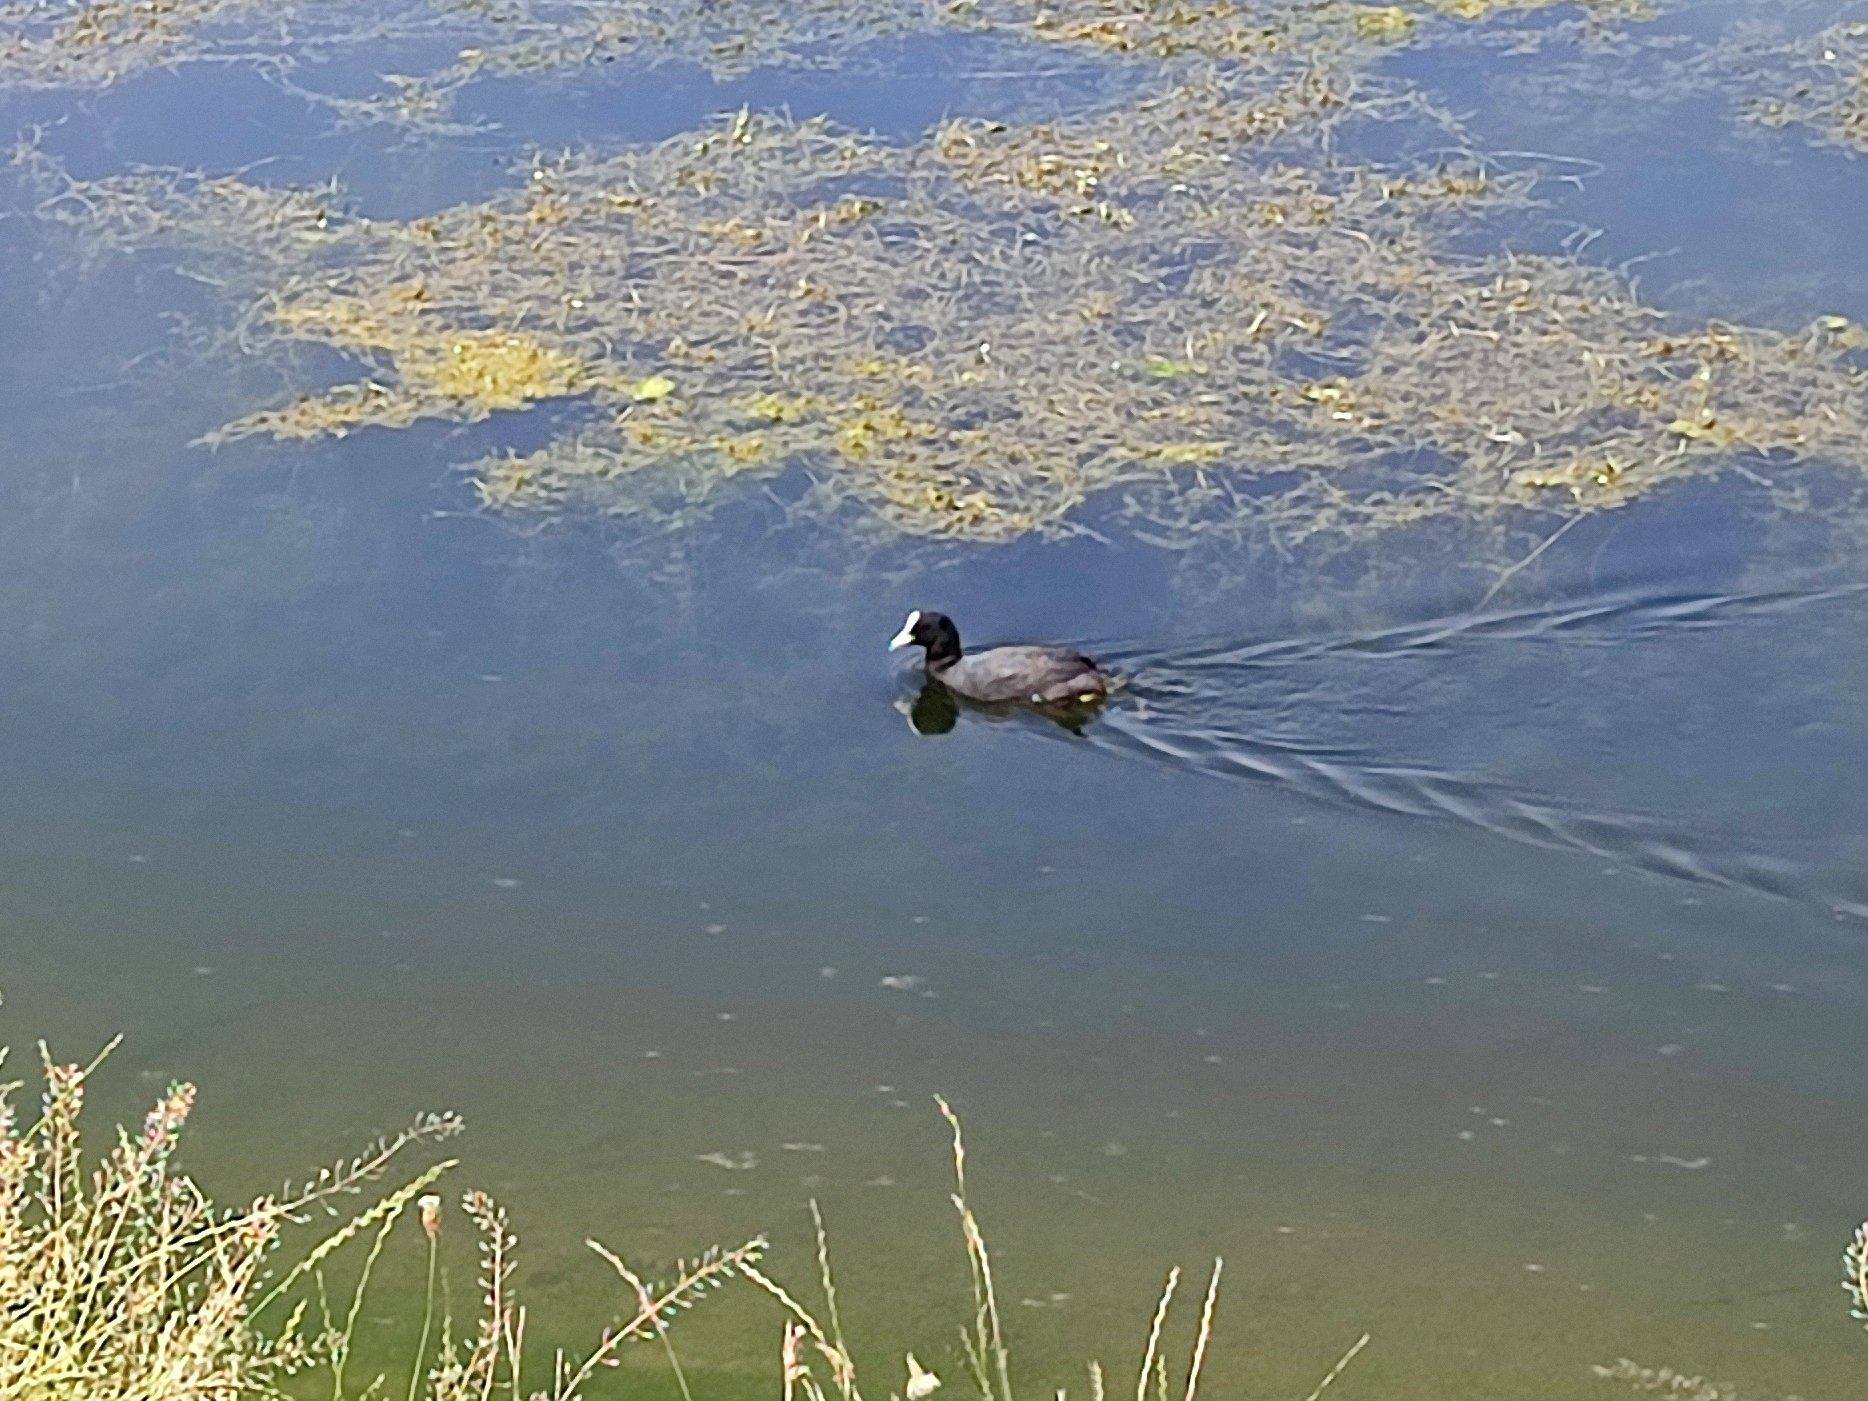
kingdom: Animalia
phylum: Chordata
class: Aves
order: Gruiformes
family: Rallidae
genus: Fulica
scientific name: Fulica atra
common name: Eurasian coot
